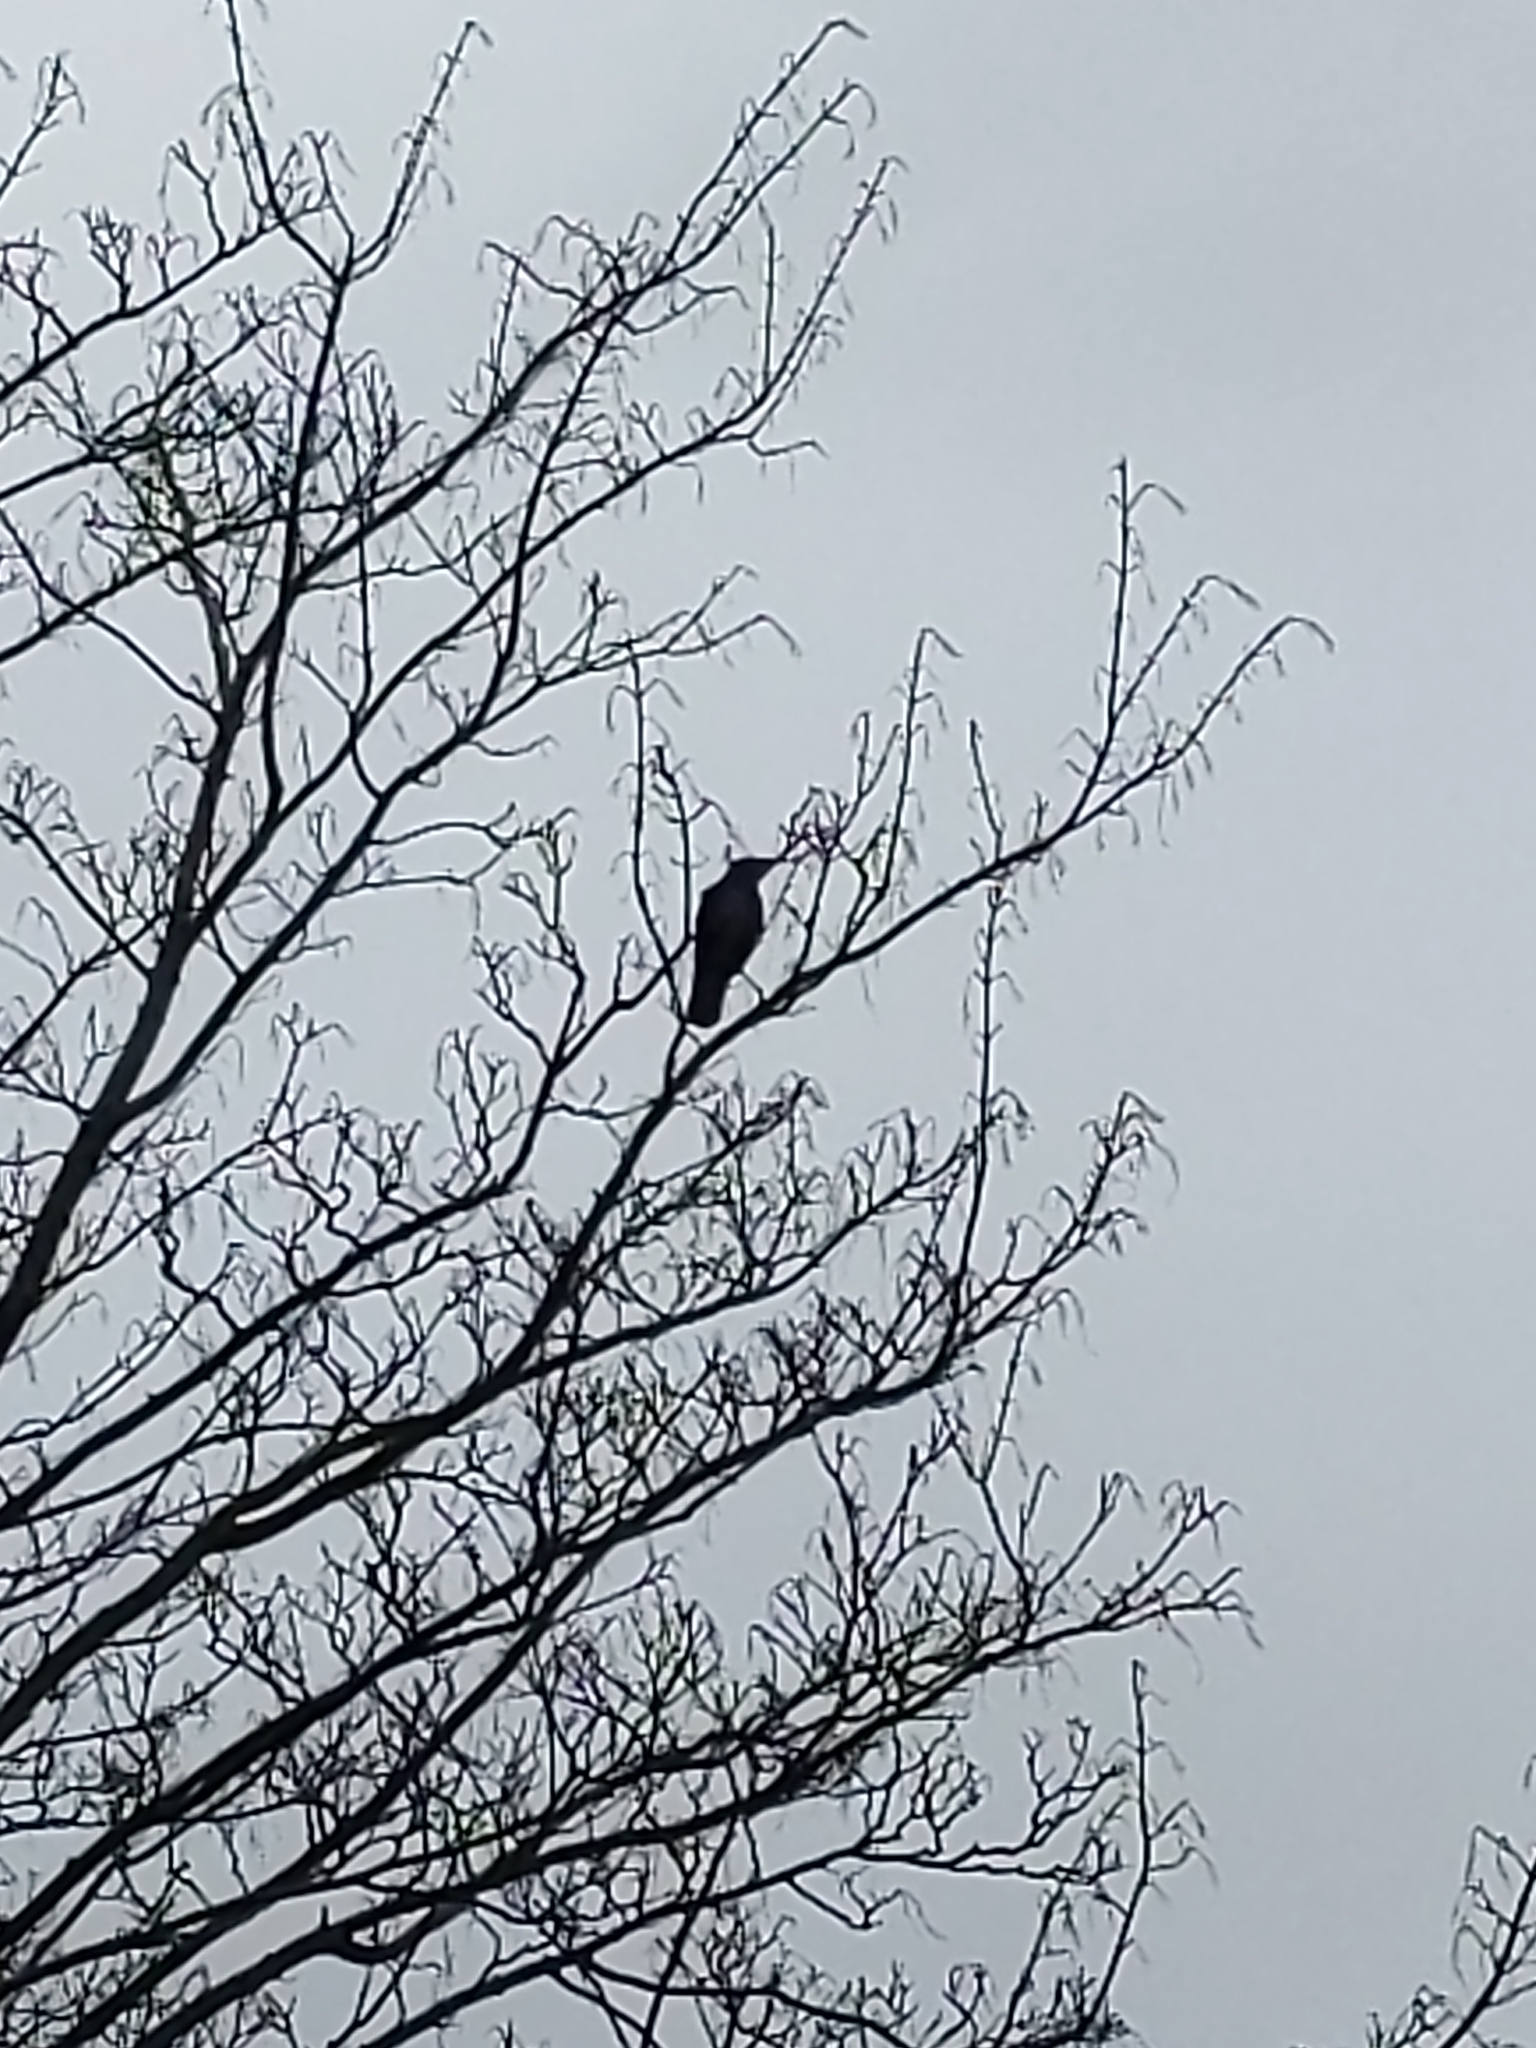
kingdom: Animalia
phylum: Chordata
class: Aves
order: Passeriformes
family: Corvidae
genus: Corvus
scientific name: Corvus corone
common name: Carrion crow
